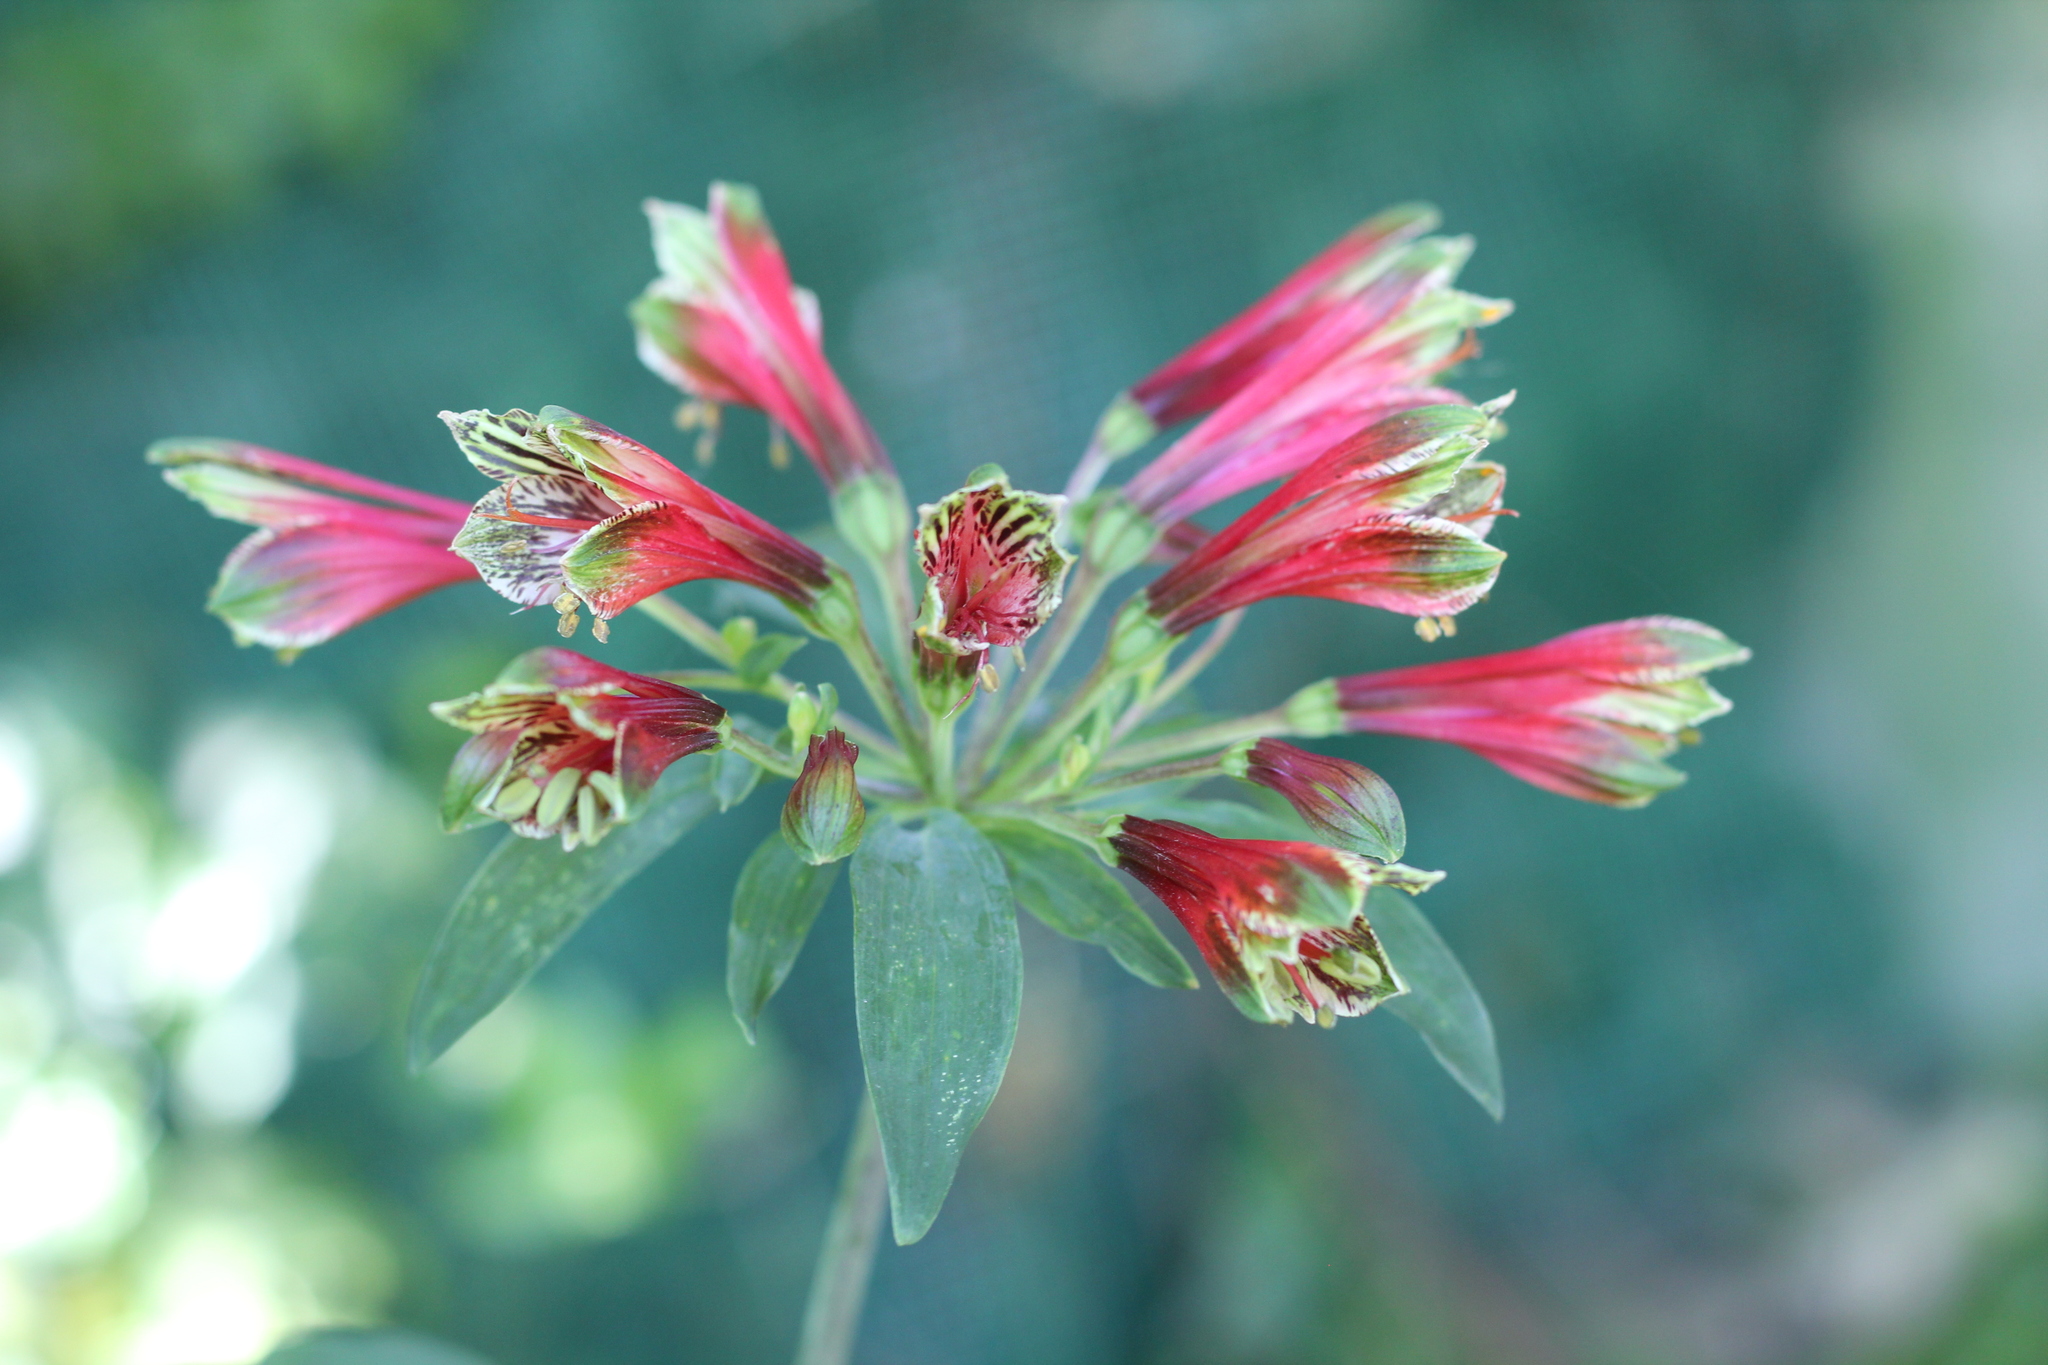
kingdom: Plantae
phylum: Tracheophyta
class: Liliopsida
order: Liliales
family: Alstroemeriaceae
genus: Alstroemeria
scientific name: Alstroemeria psittacina
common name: Peruvian-lily
